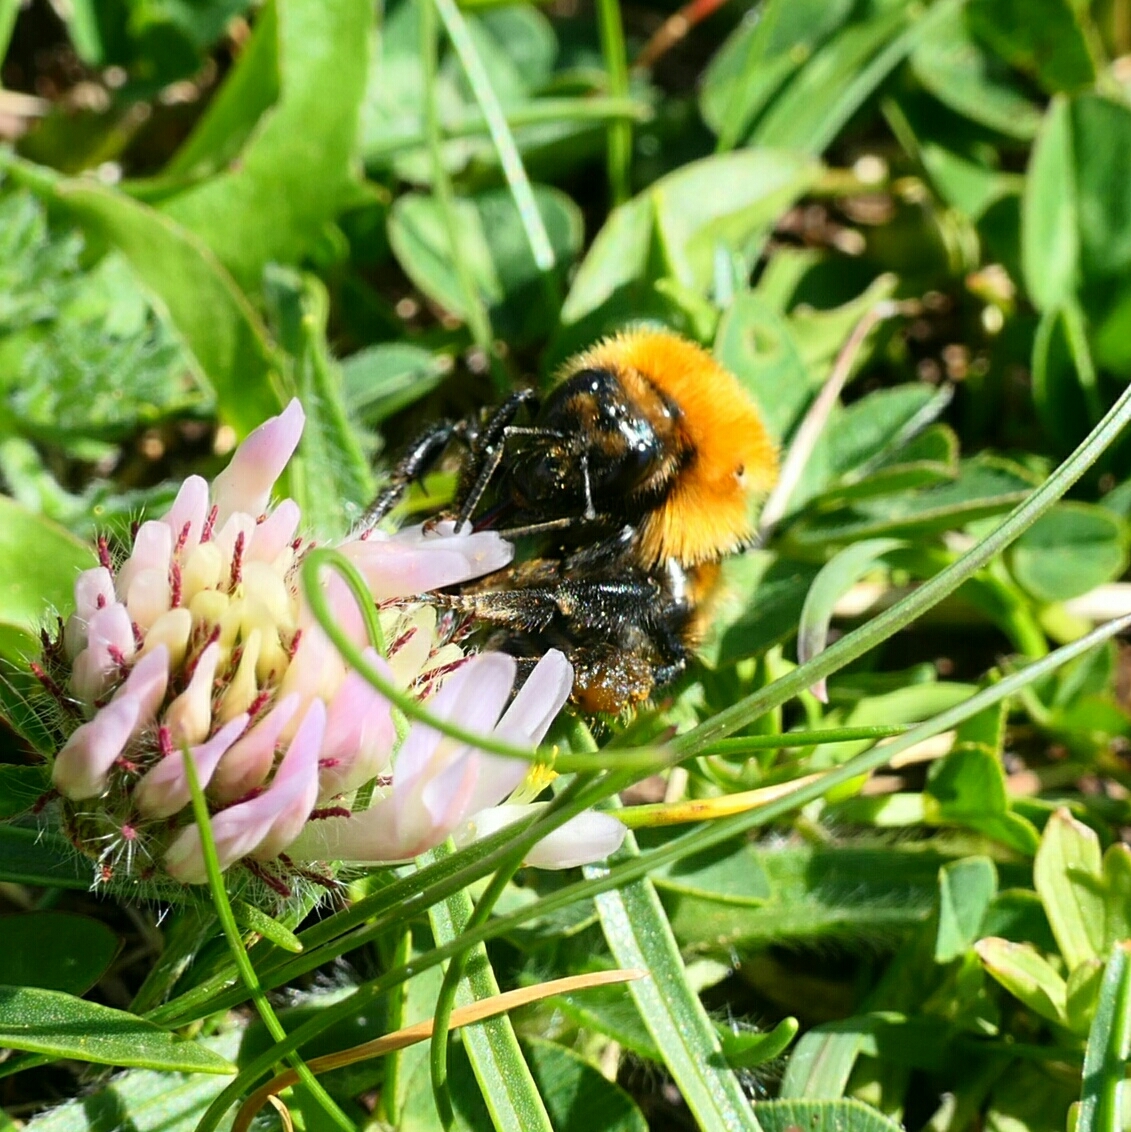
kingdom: Animalia
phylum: Arthropoda
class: Insecta
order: Hymenoptera
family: Apidae
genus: Bombus
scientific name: Bombus pascuorum
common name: Common carder bee
